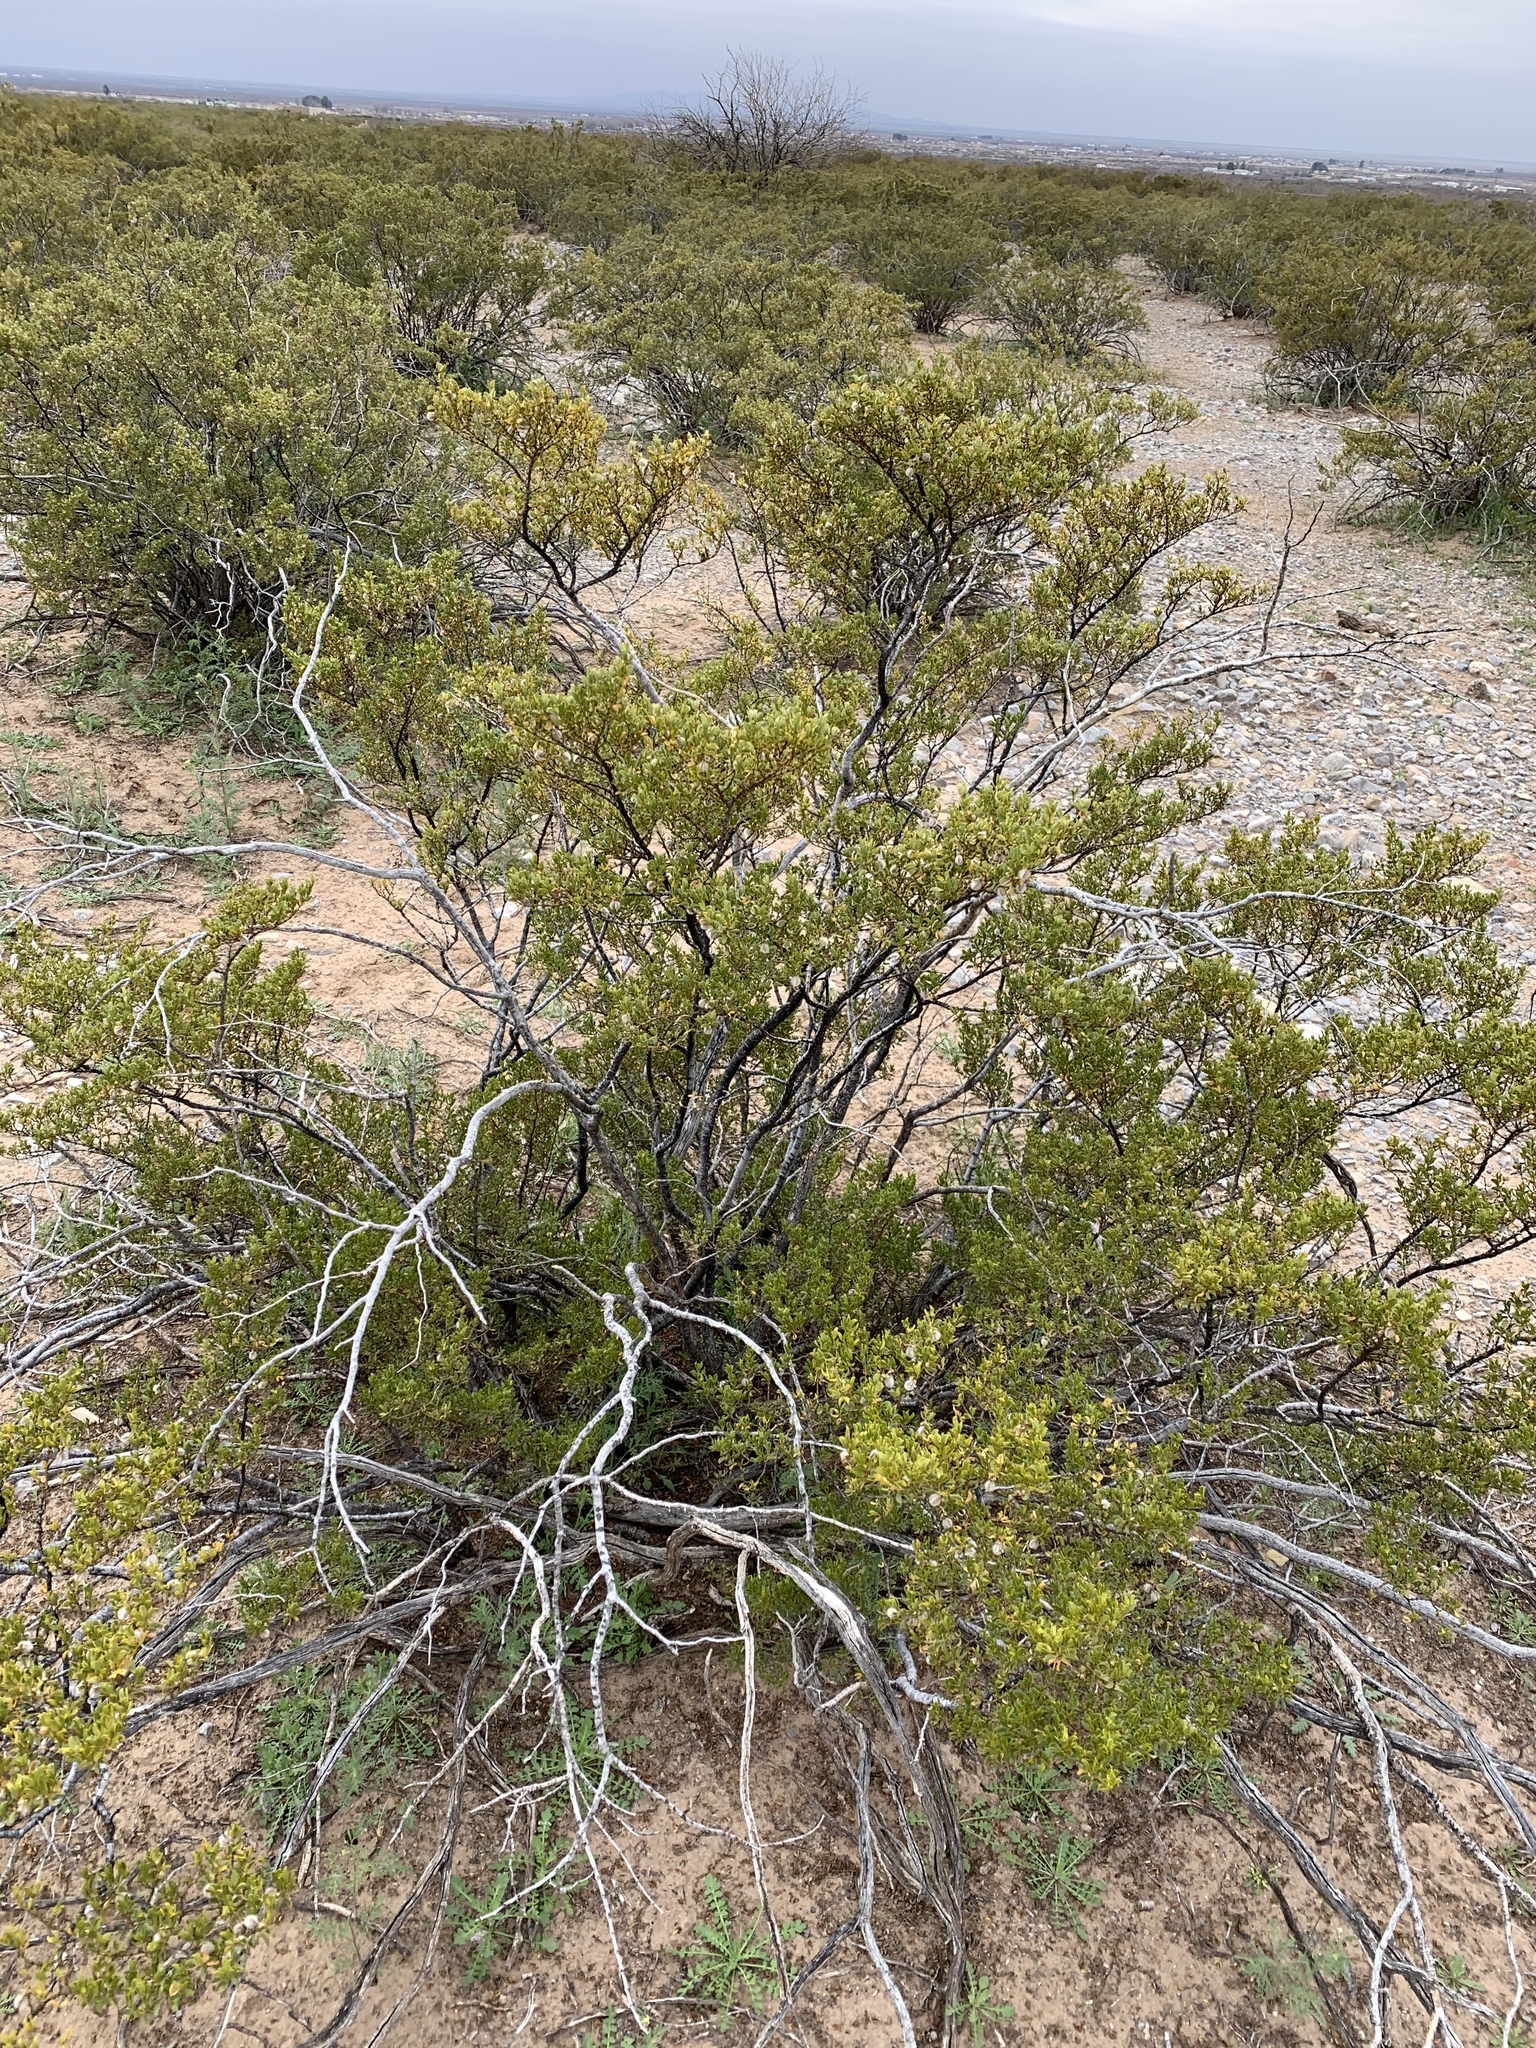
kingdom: Plantae
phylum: Tracheophyta
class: Magnoliopsida
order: Zygophyllales
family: Zygophyllaceae
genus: Larrea
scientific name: Larrea tridentata
